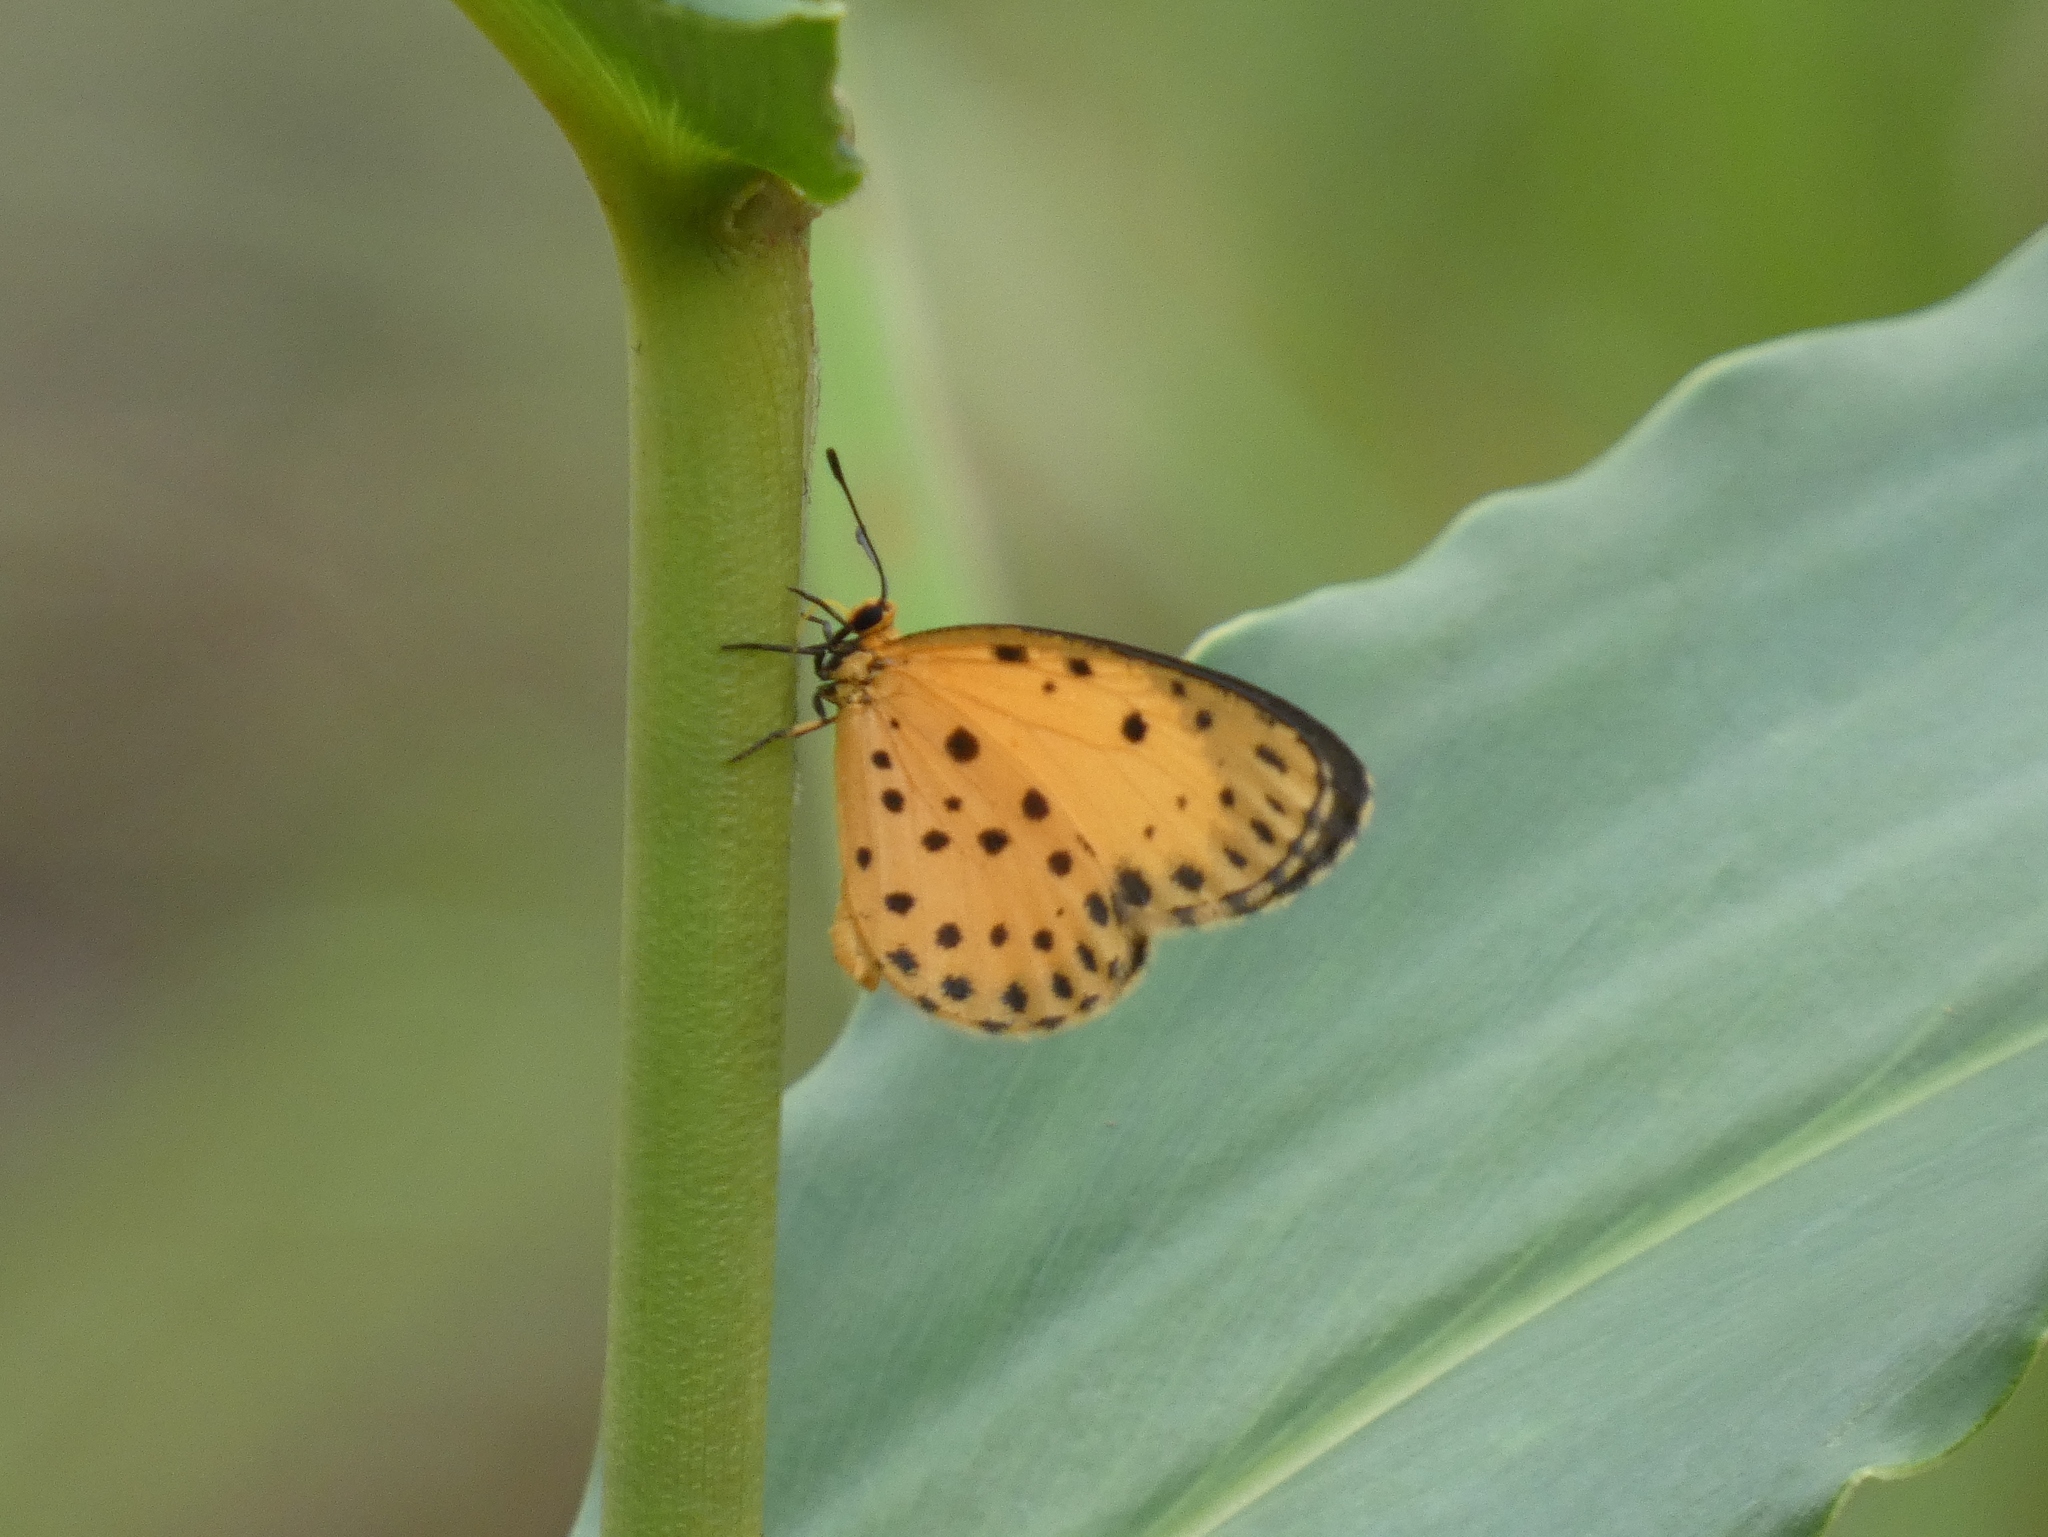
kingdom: Animalia
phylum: Arthropoda
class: Insecta
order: Lepidoptera
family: Lycaenidae
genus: Pentila
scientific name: Pentila pauli
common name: Paul's pentila
